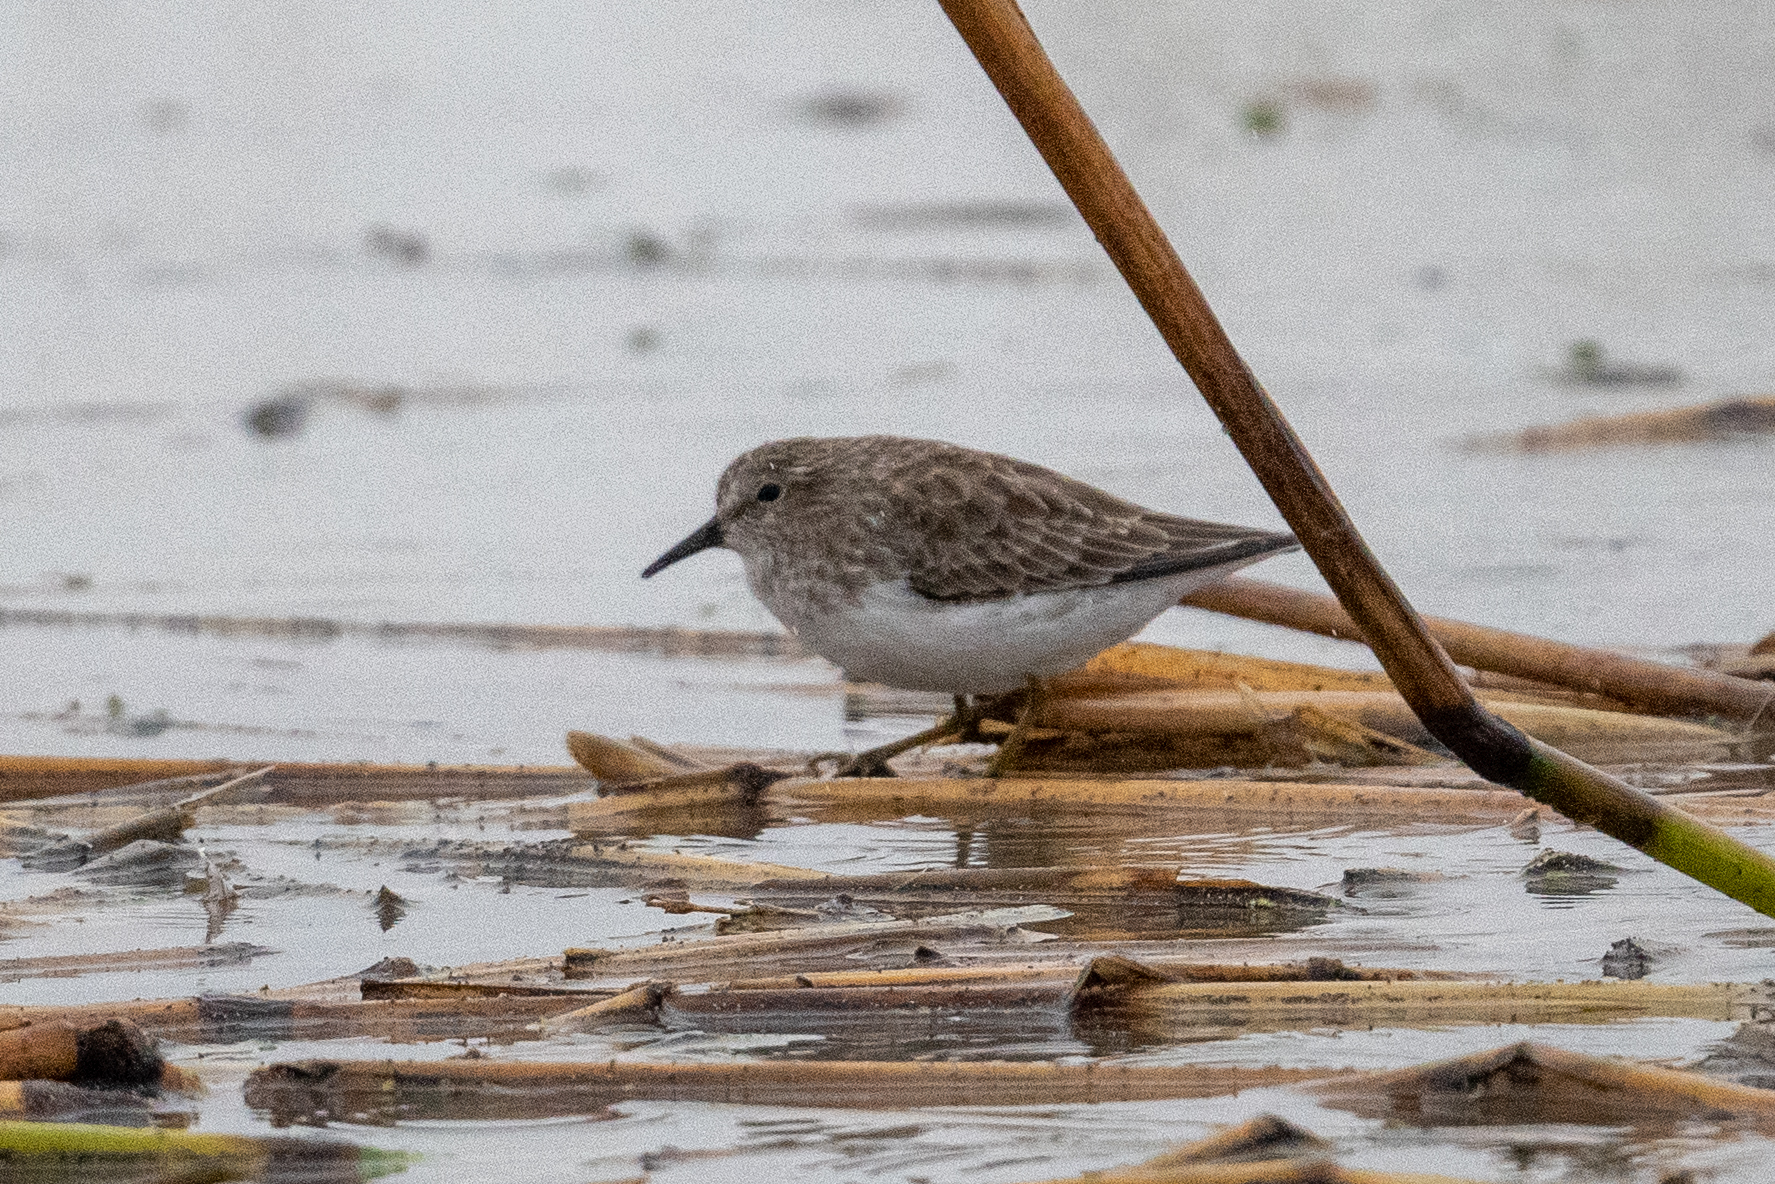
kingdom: Animalia
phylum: Chordata
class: Aves
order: Charadriiformes
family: Scolopacidae
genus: Calidris
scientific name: Calidris minutilla
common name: Least sandpiper
